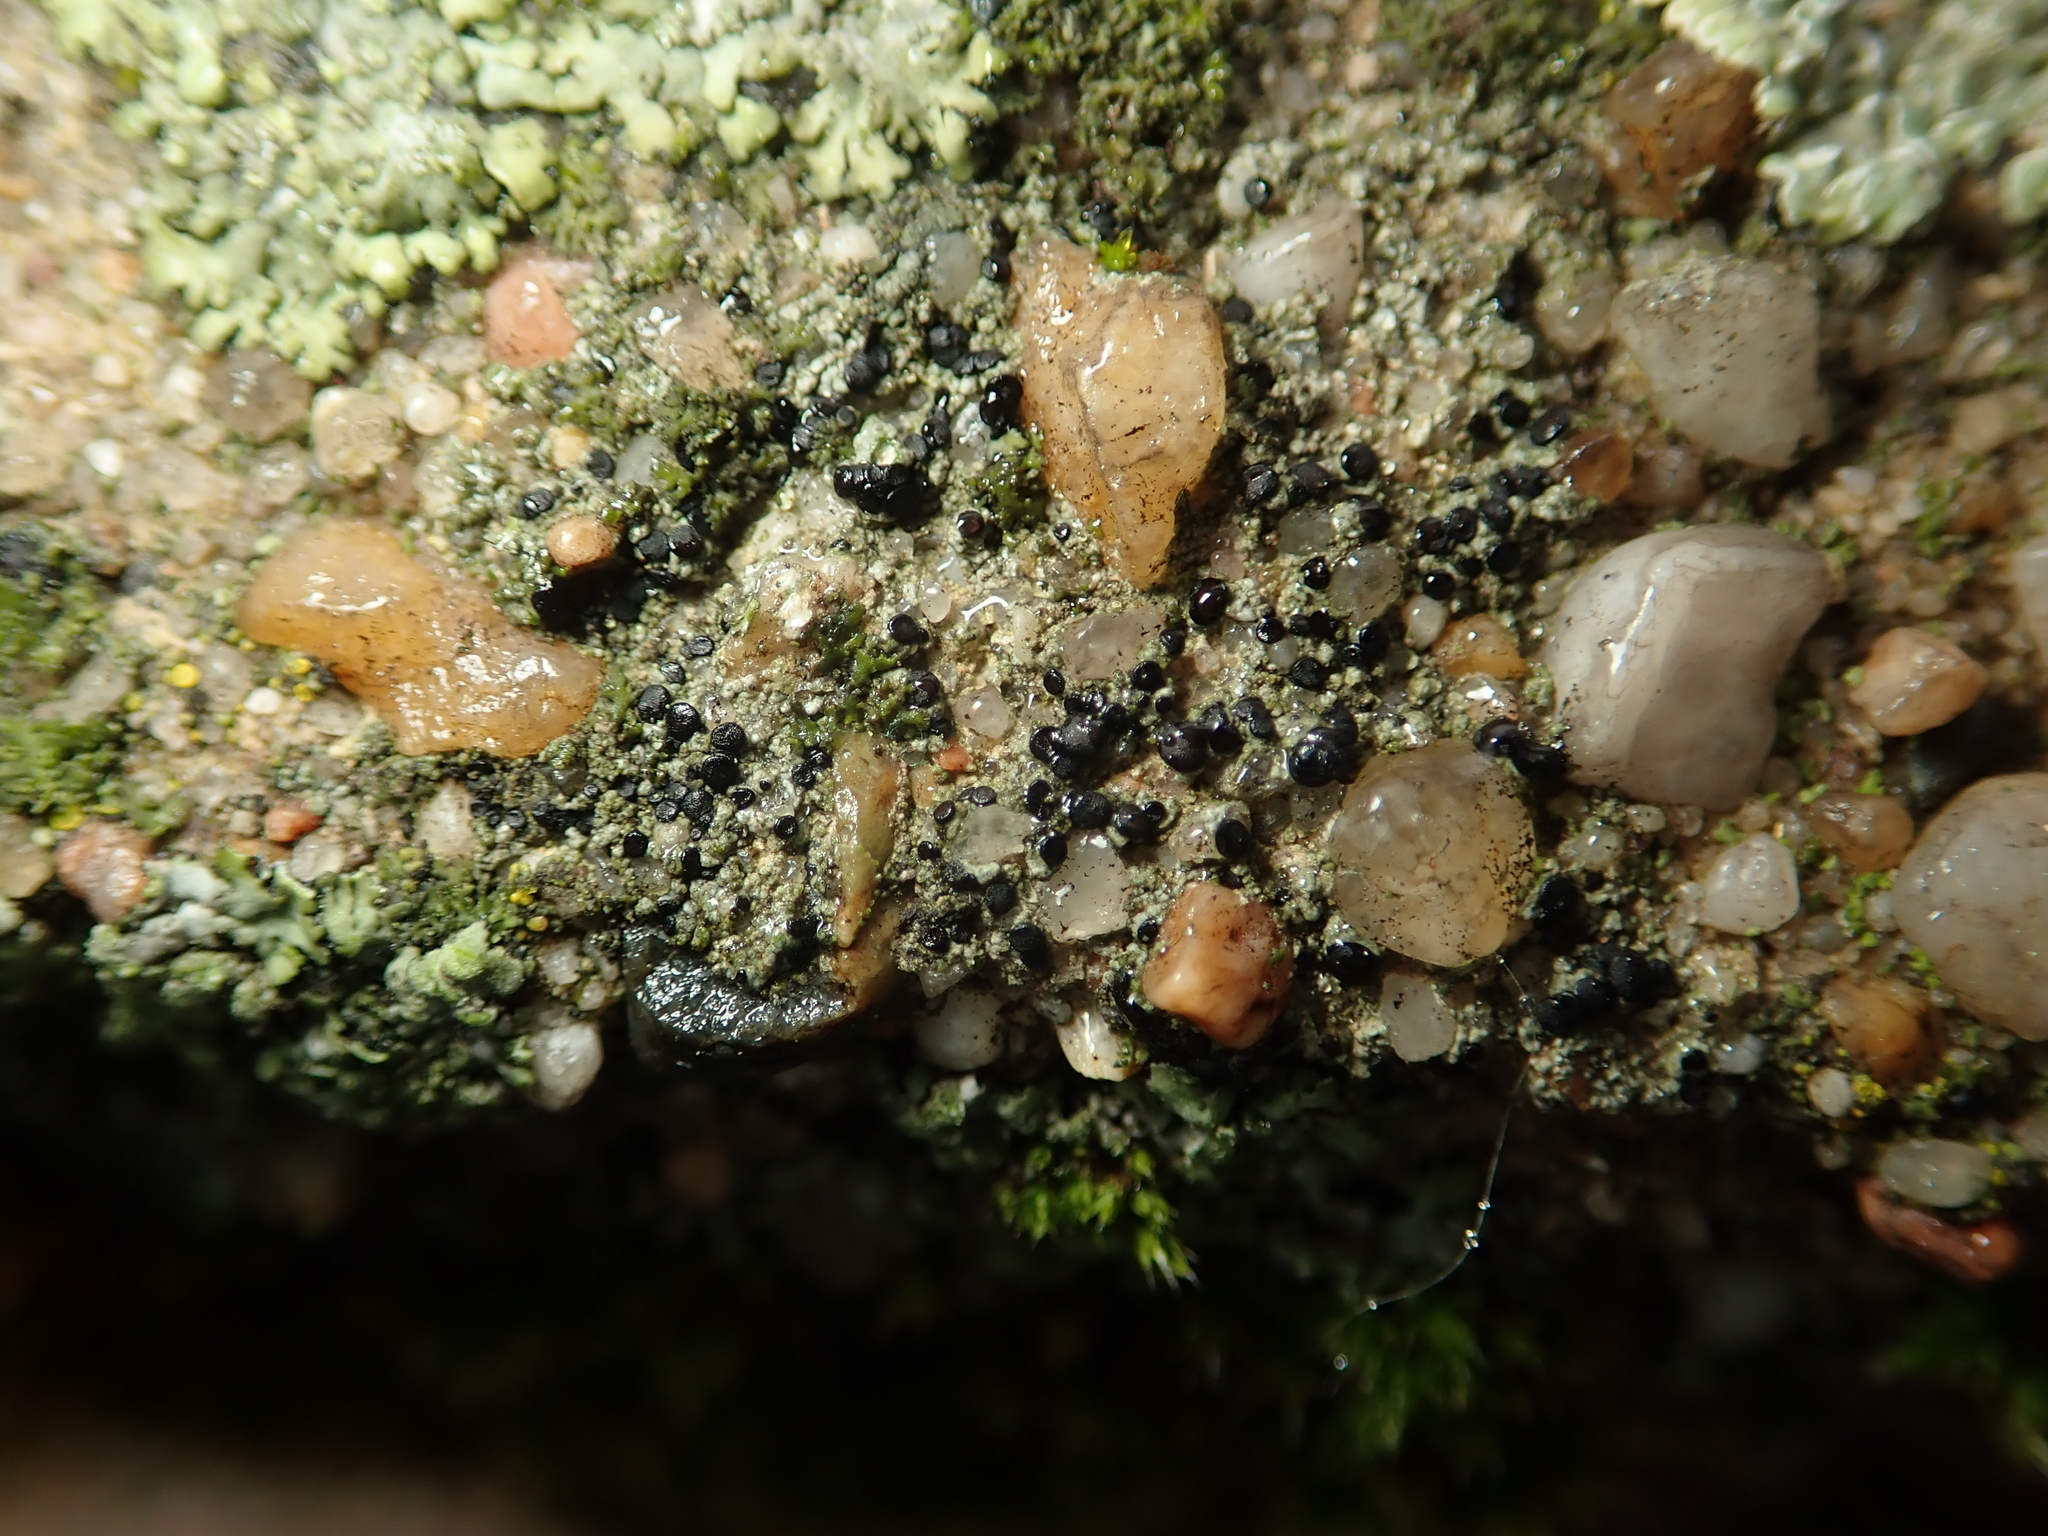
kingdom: Fungi
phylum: Ascomycota
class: Lecanoromycetes
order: Lecanorales
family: Lecanoraceae
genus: Lecidella
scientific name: Lecidella stigmatea
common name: Limestone disc lichen
